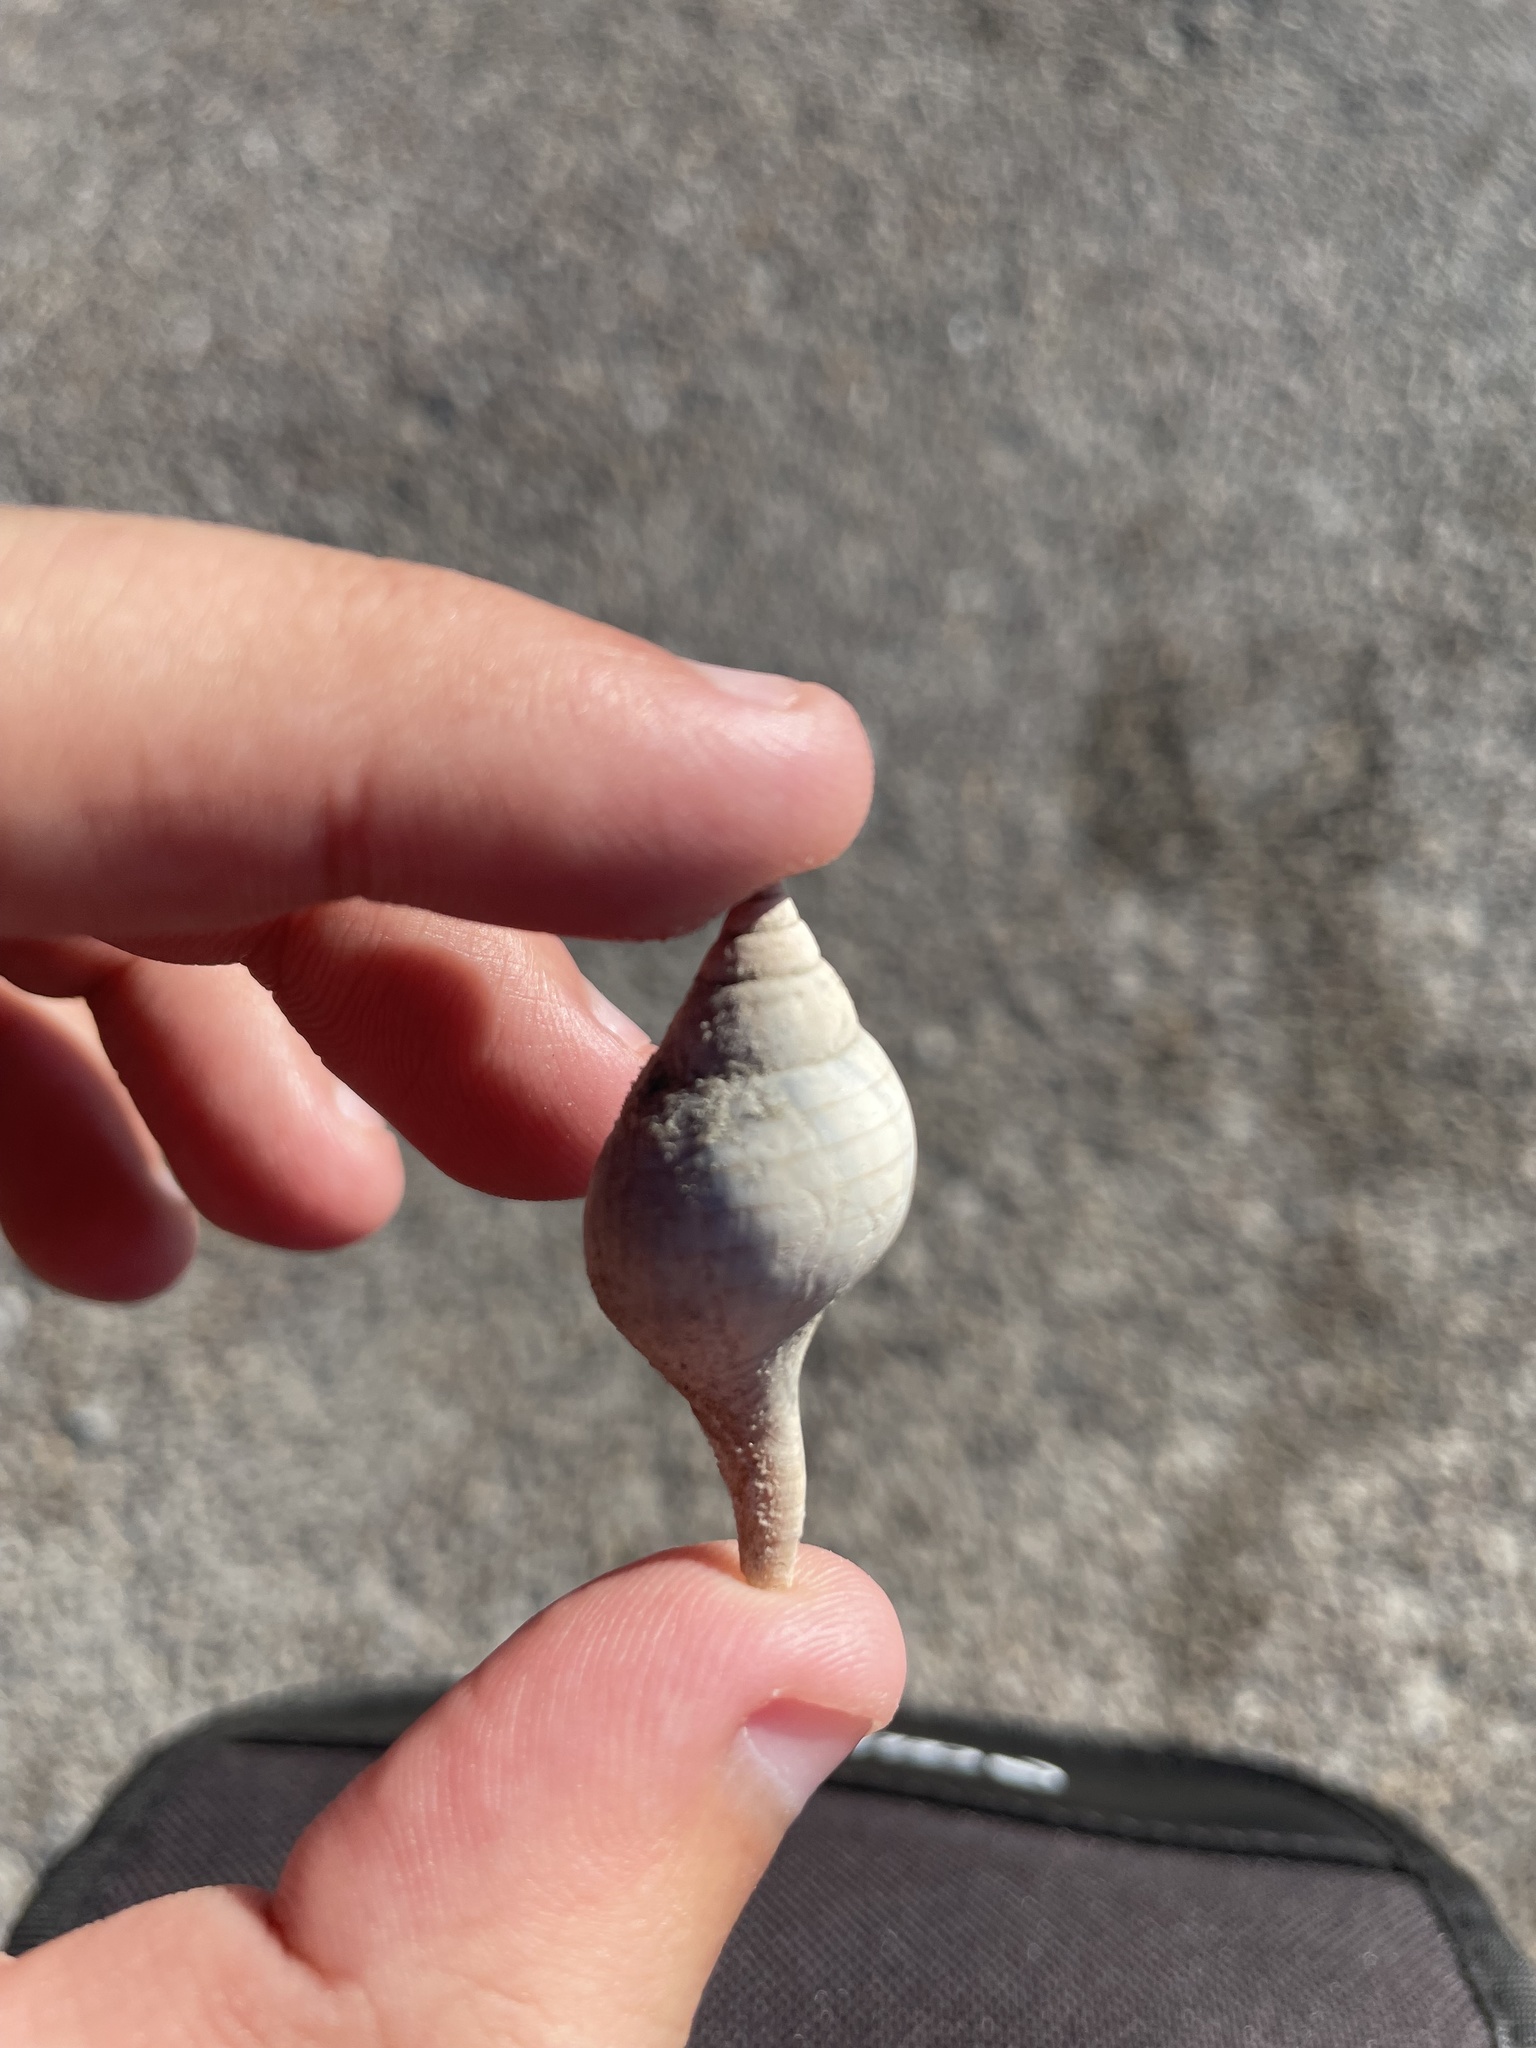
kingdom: Animalia
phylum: Mollusca
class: Gastropoda
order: Neogastropoda
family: Fasciolariidae
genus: Cinctura
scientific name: Cinctura lilium
